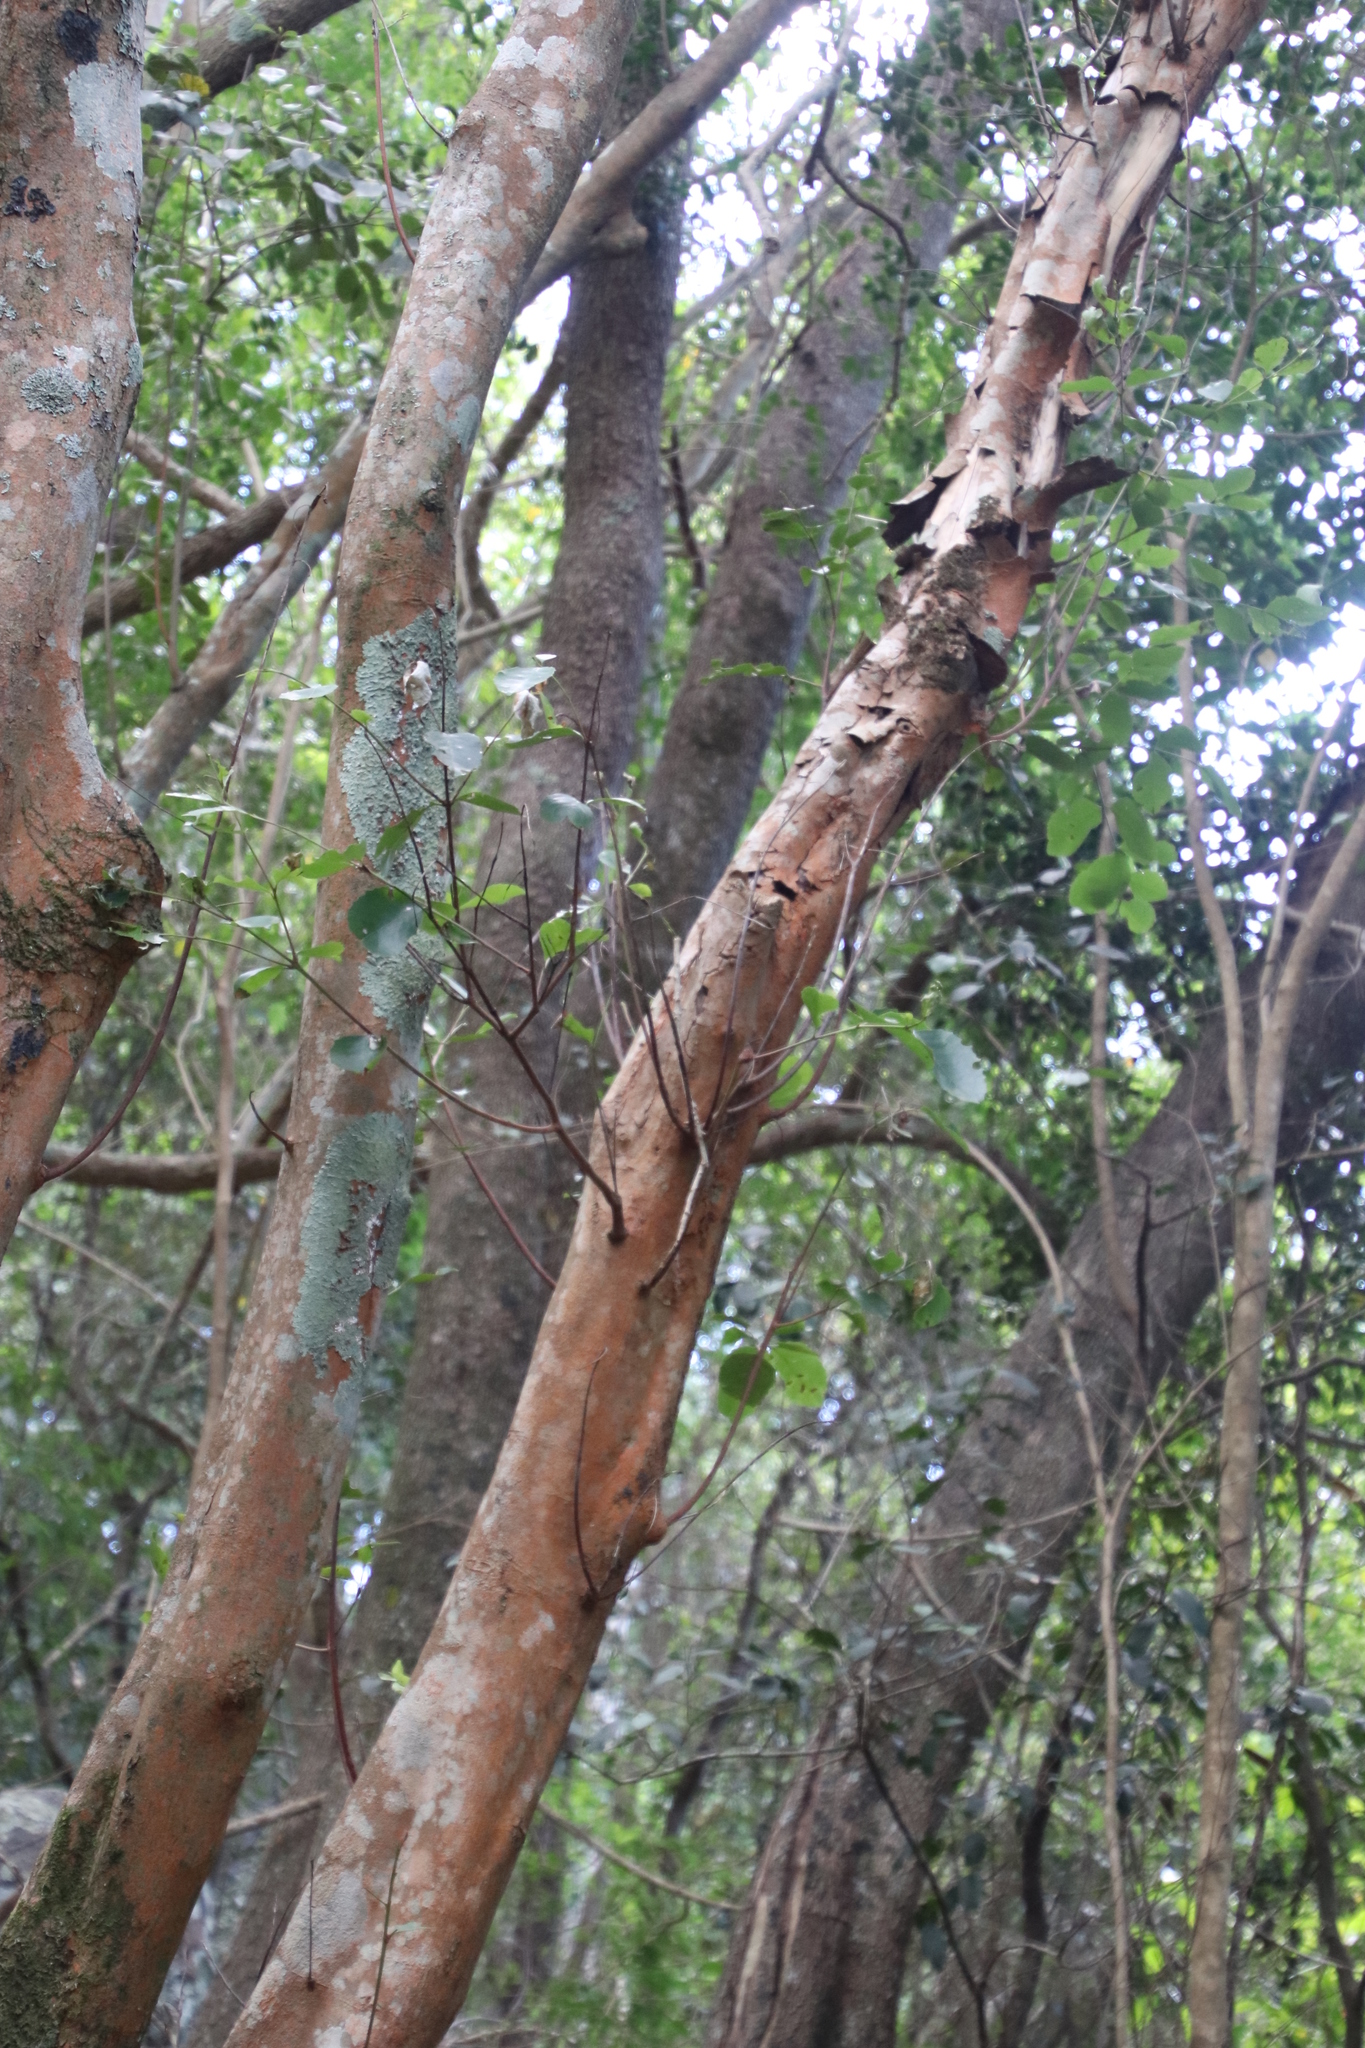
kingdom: Plantae
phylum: Tracheophyta
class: Magnoliopsida
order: Celastrales
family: Celastraceae
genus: Cassine
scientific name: Cassine peragua
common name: Cape saffron
